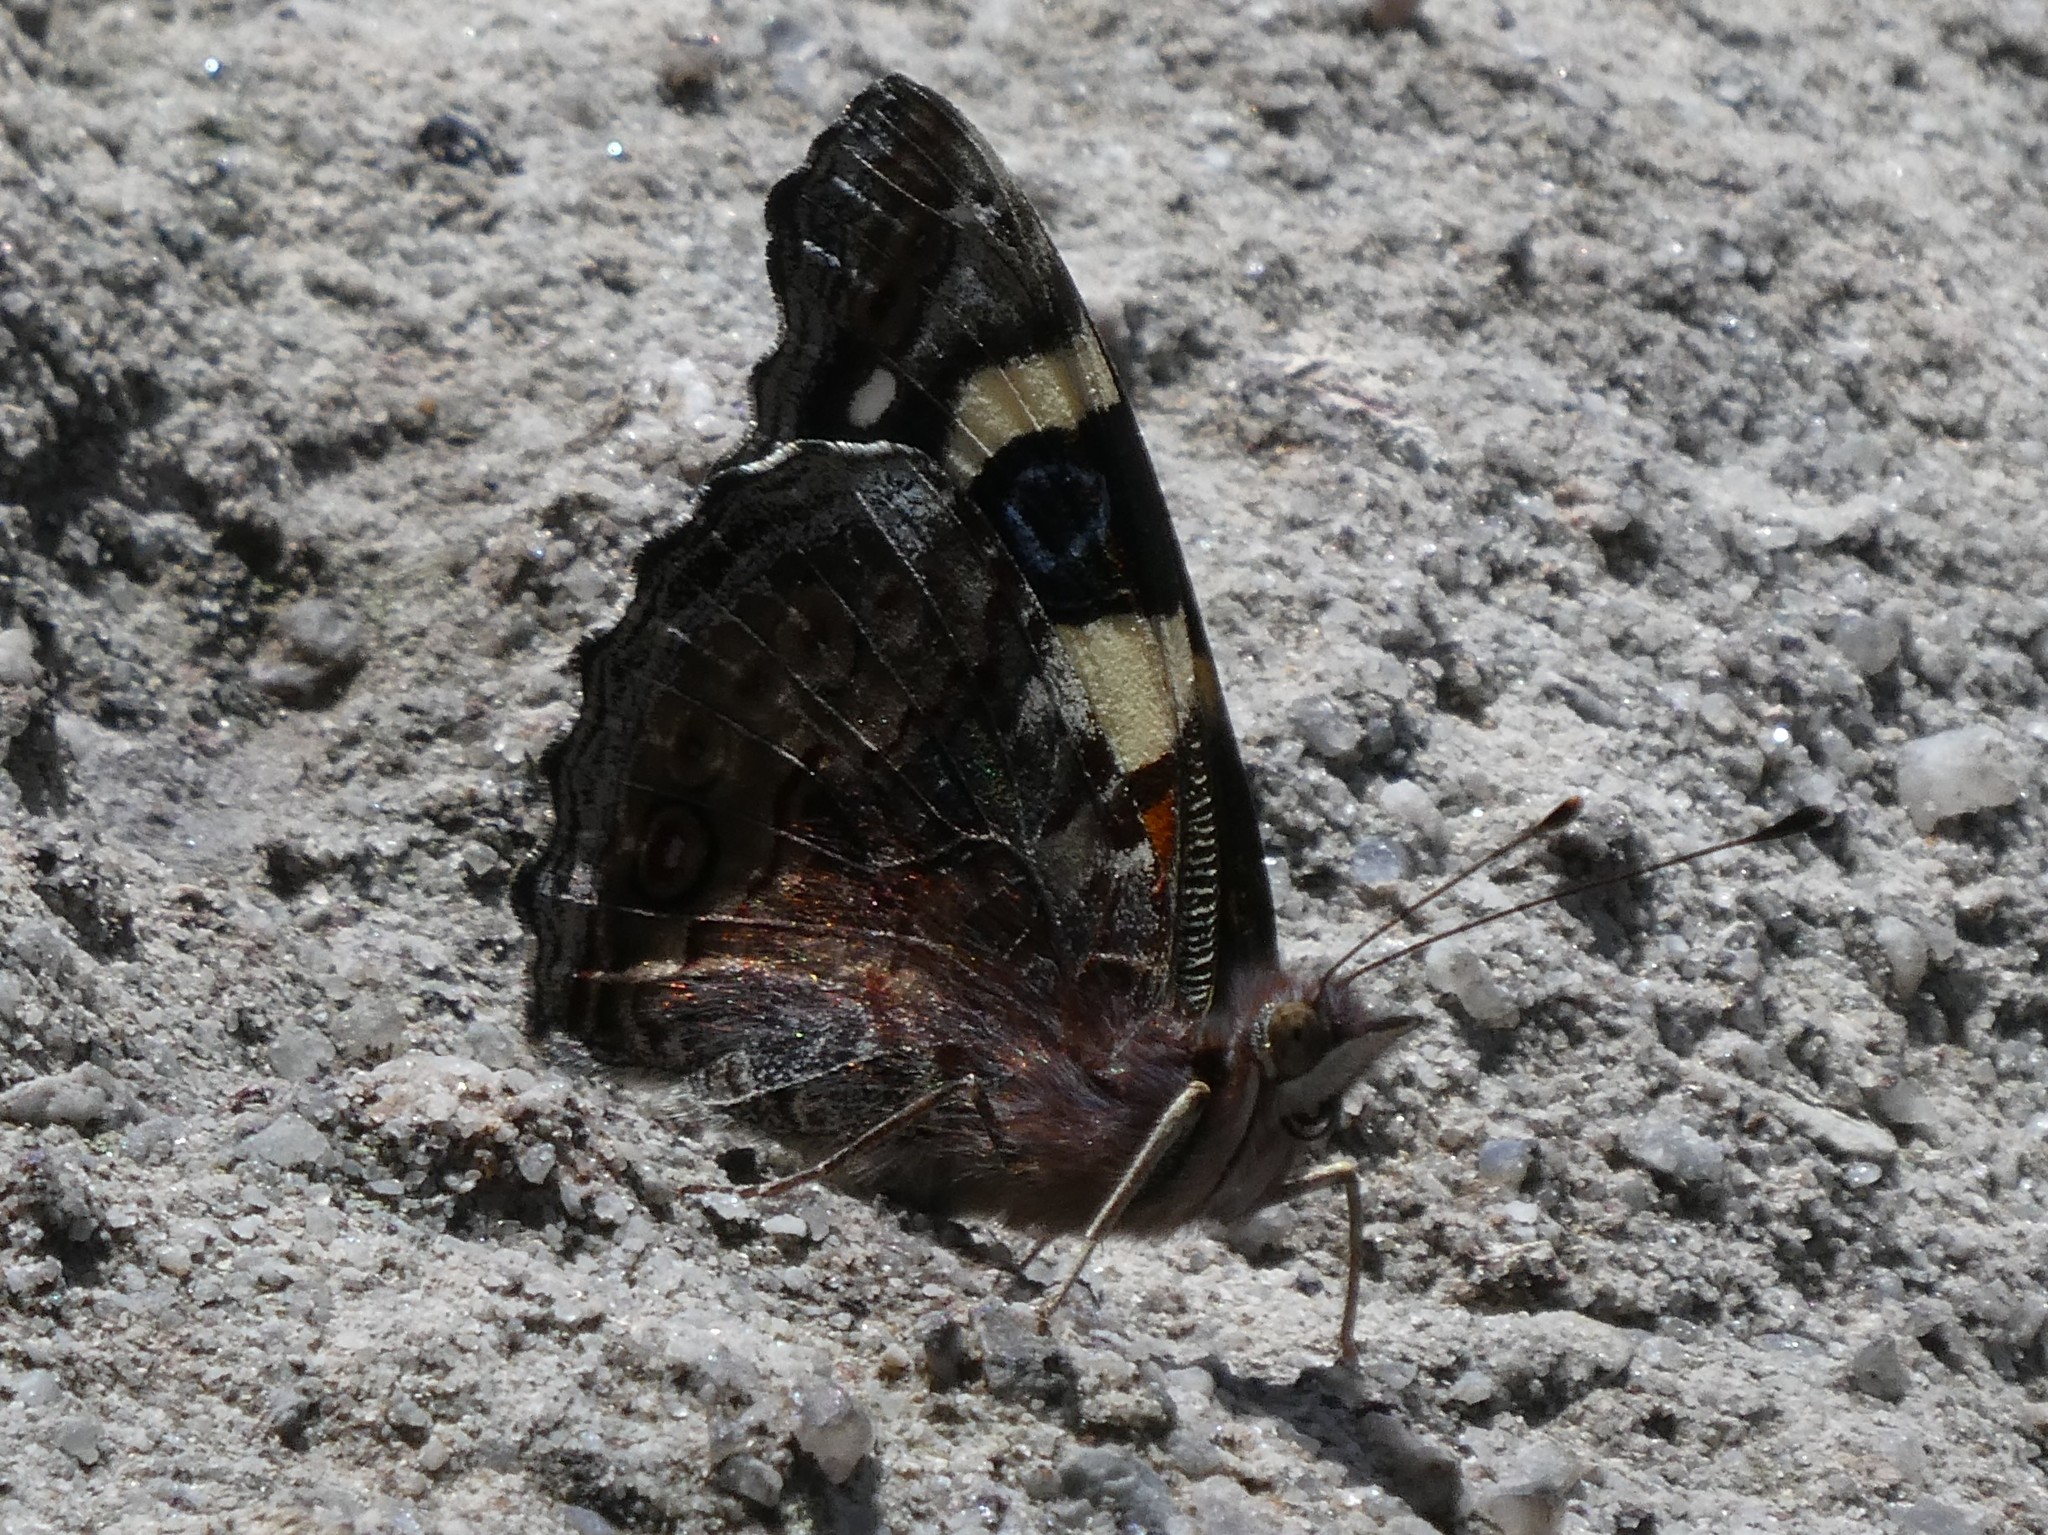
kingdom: Animalia
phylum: Arthropoda
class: Insecta
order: Lepidoptera
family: Nymphalidae
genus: Vanessa
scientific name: Vanessa itea
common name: Yellow admiral
